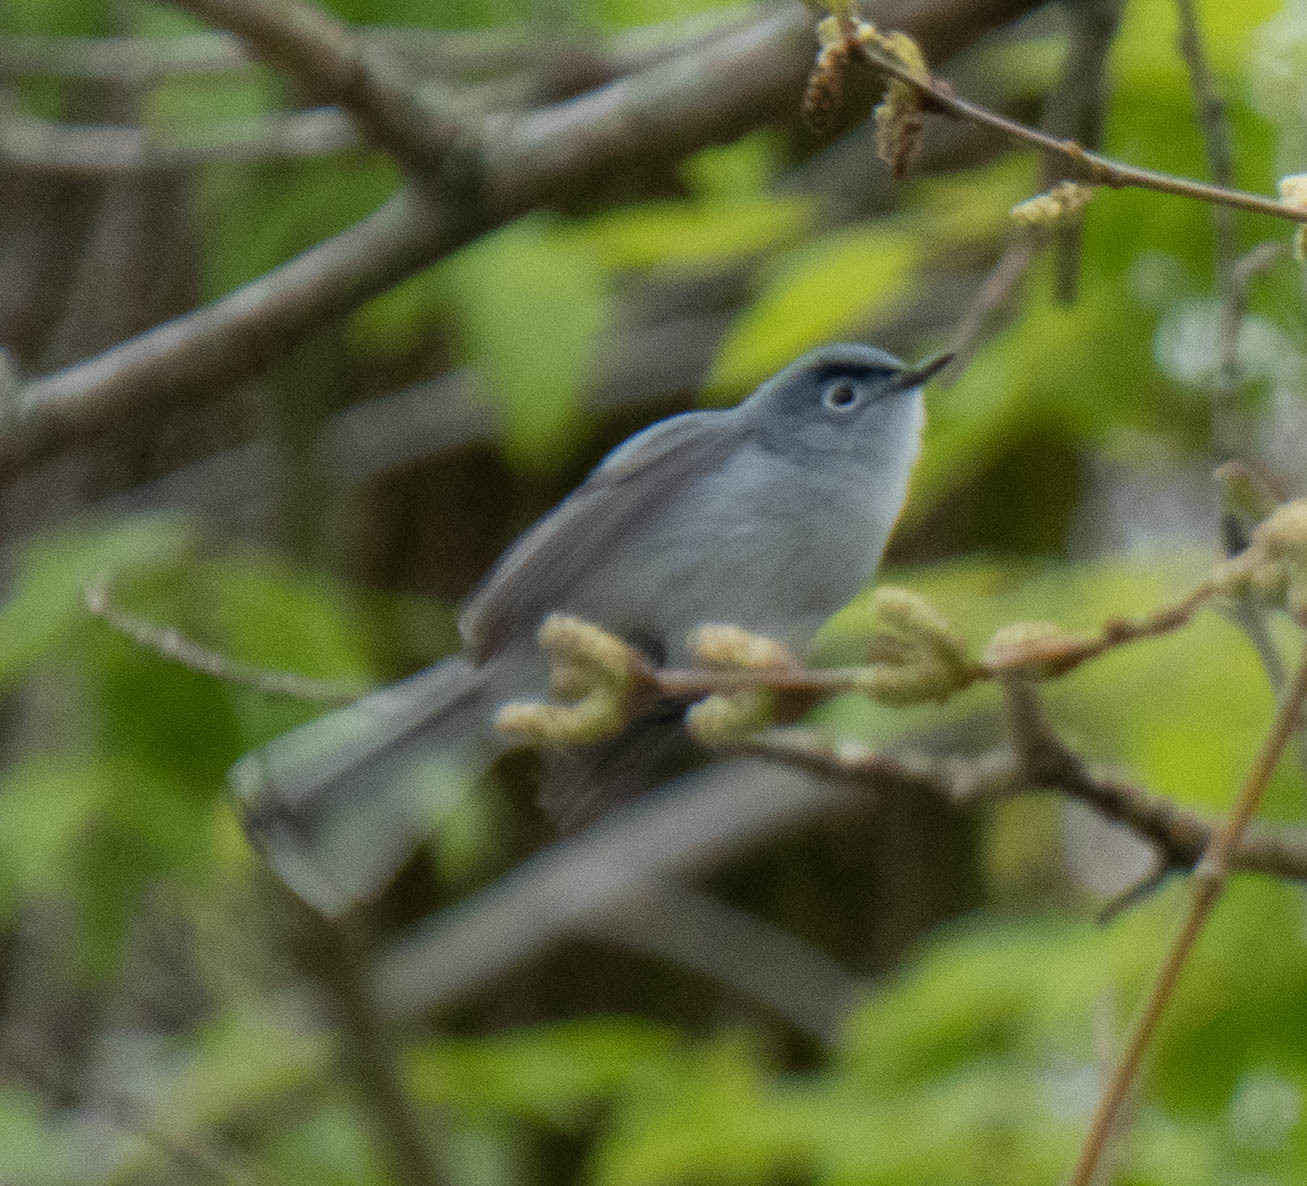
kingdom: Animalia
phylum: Chordata
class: Aves
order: Passeriformes
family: Polioptilidae
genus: Polioptila
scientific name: Polioptila caerulea
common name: Blue-gray gnatcatcher
